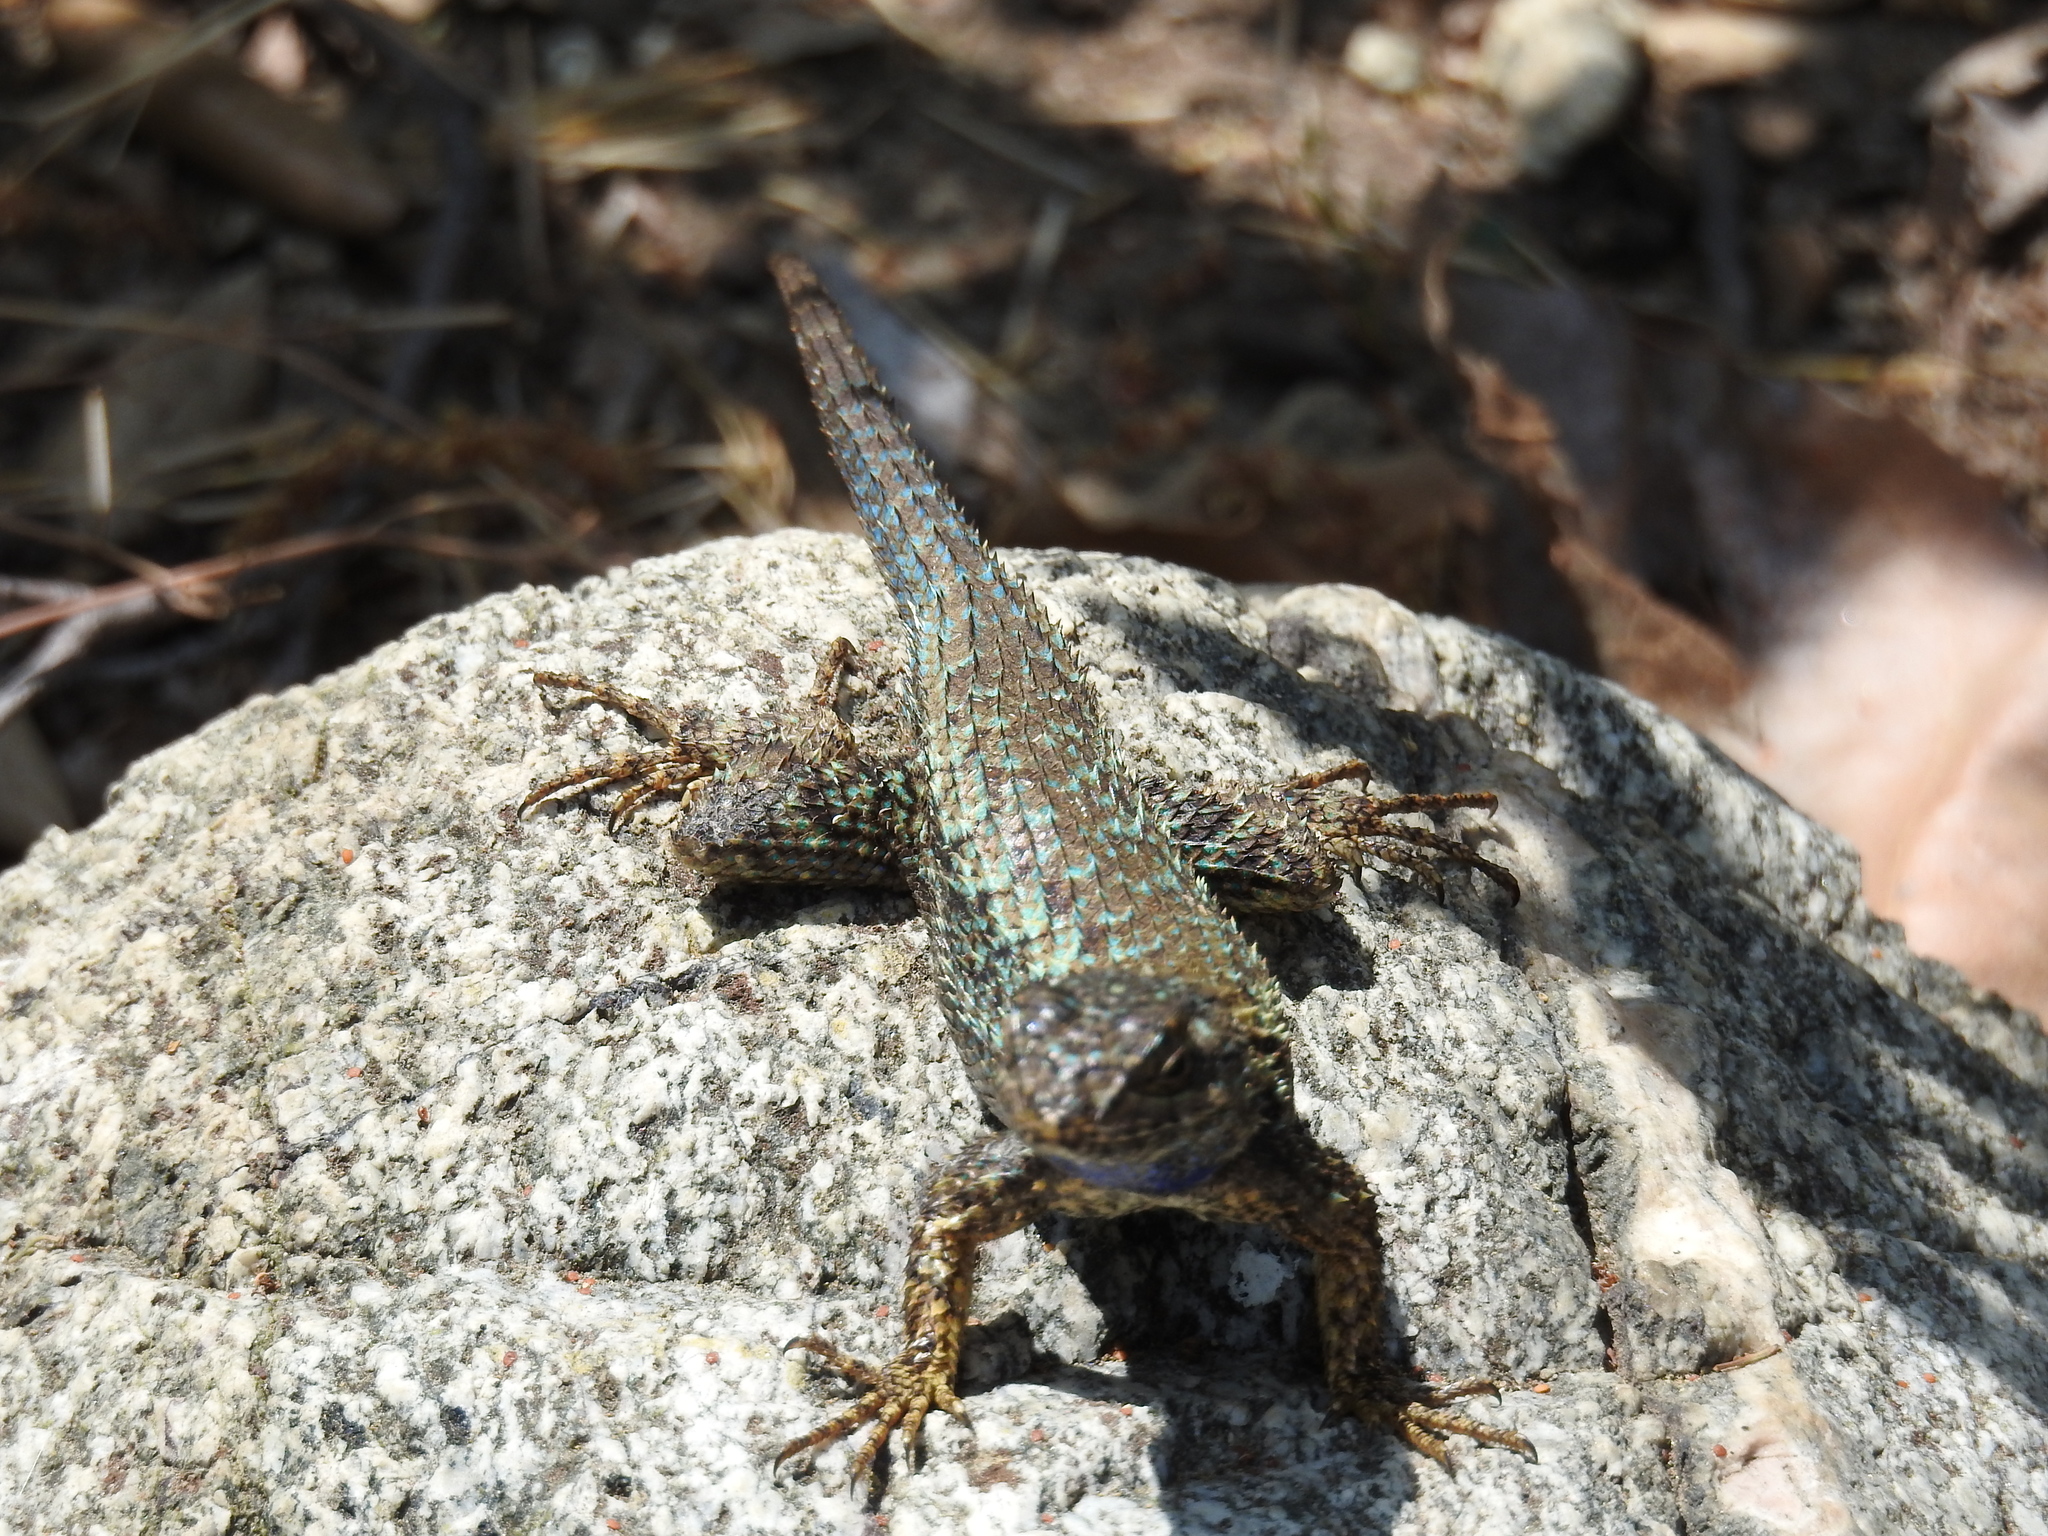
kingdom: Animalia
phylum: Chordata
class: Squamata
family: Phrynosomatidae
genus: Sceloporus
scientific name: Sceloporus occidentalis
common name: Western fence lizard
